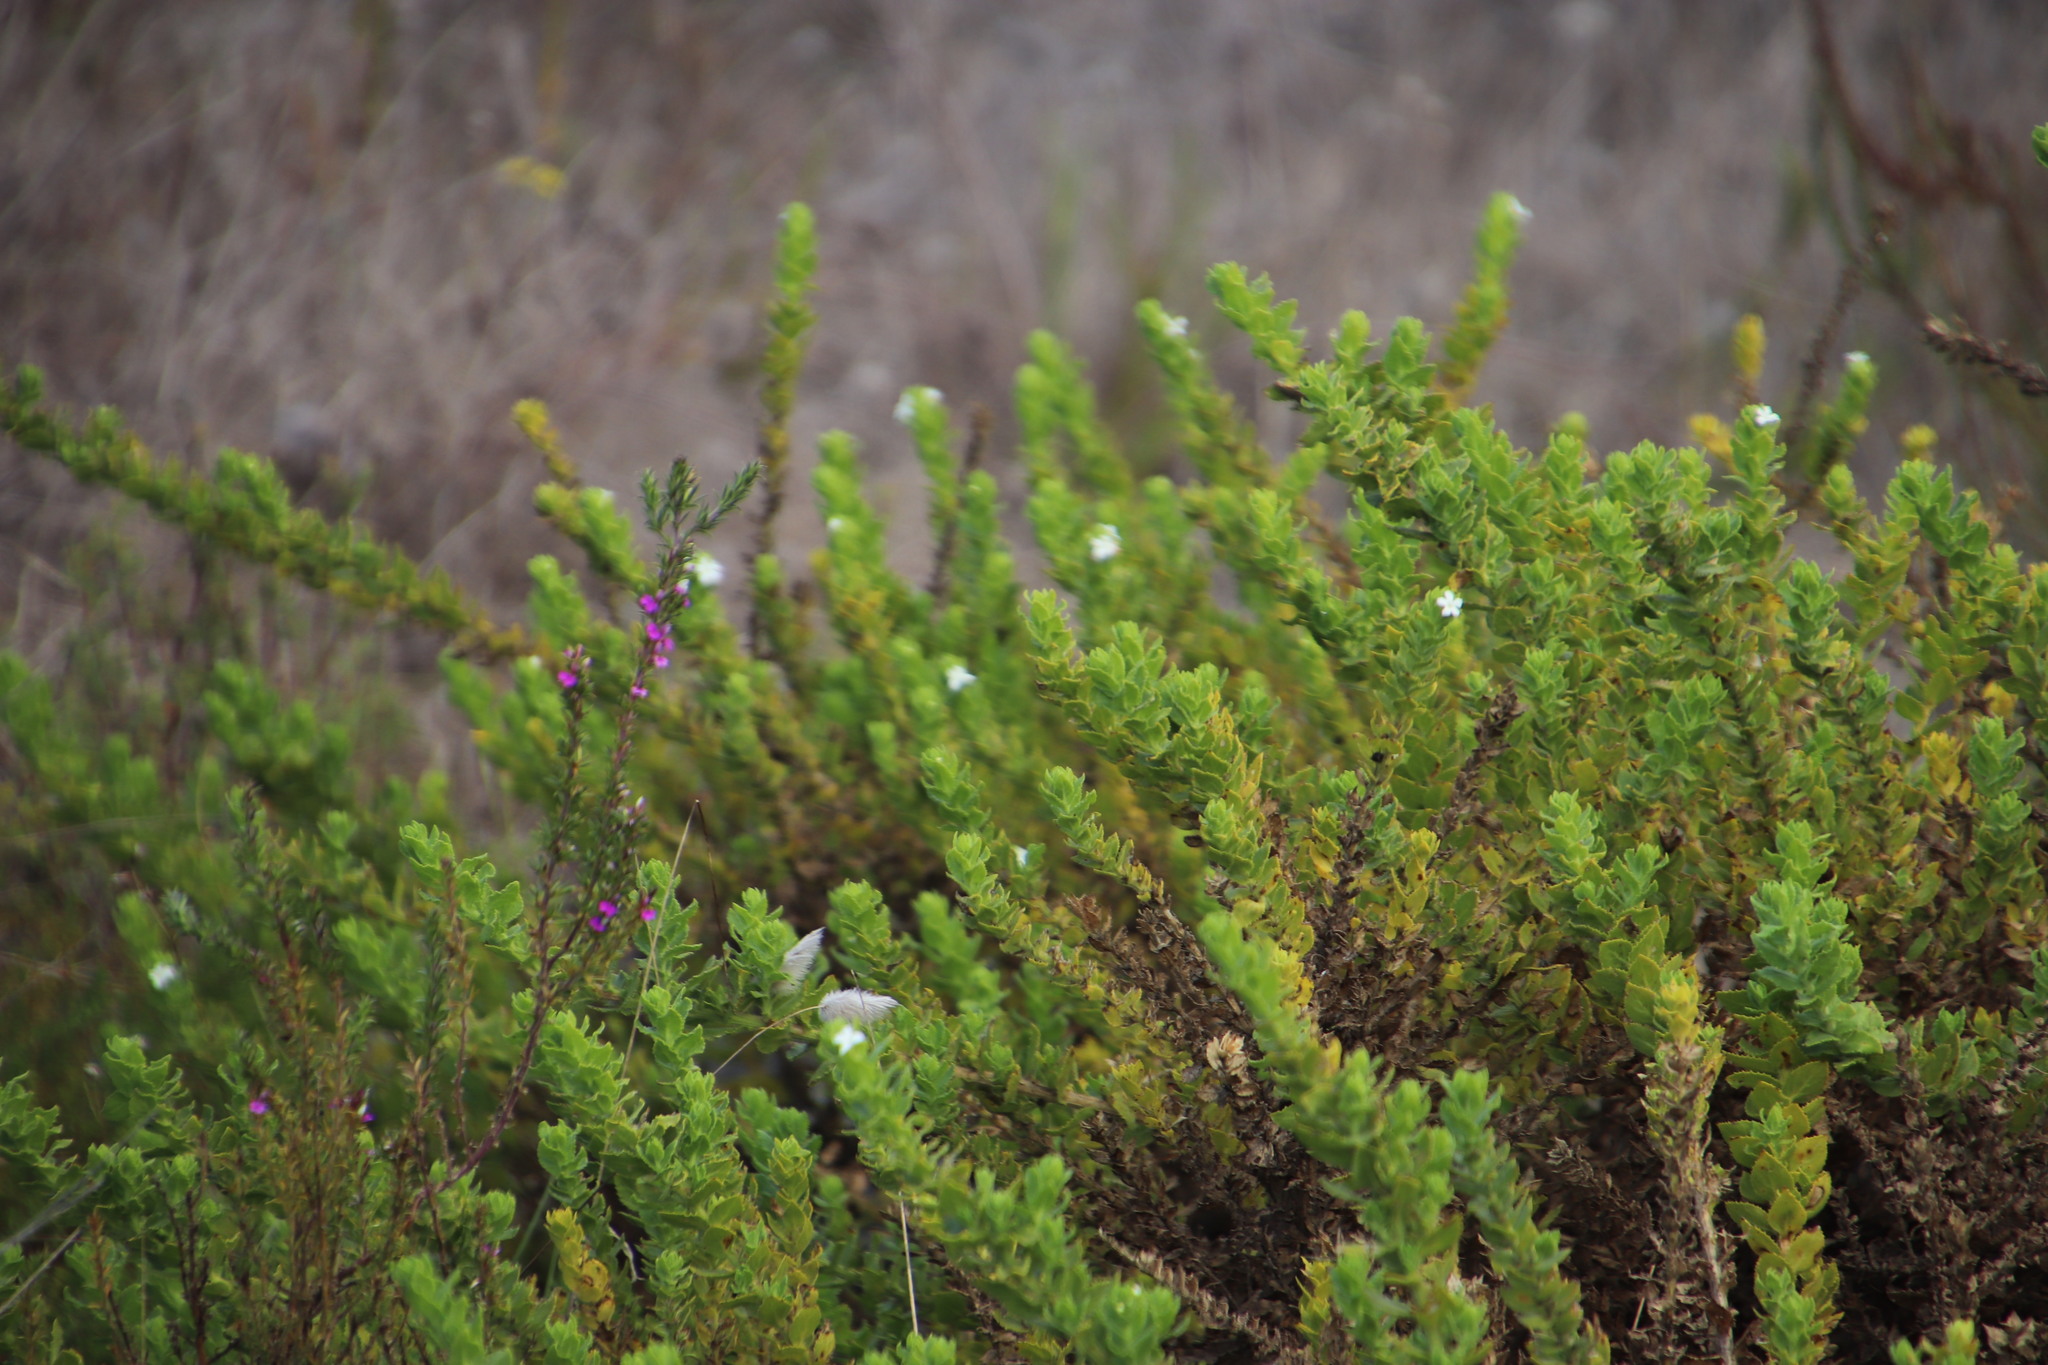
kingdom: Plantae
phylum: Tracheophyta
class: Magnoliopsida
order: Lamiales
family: Scrophulariaceae
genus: Oftia
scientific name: Oftia africana
